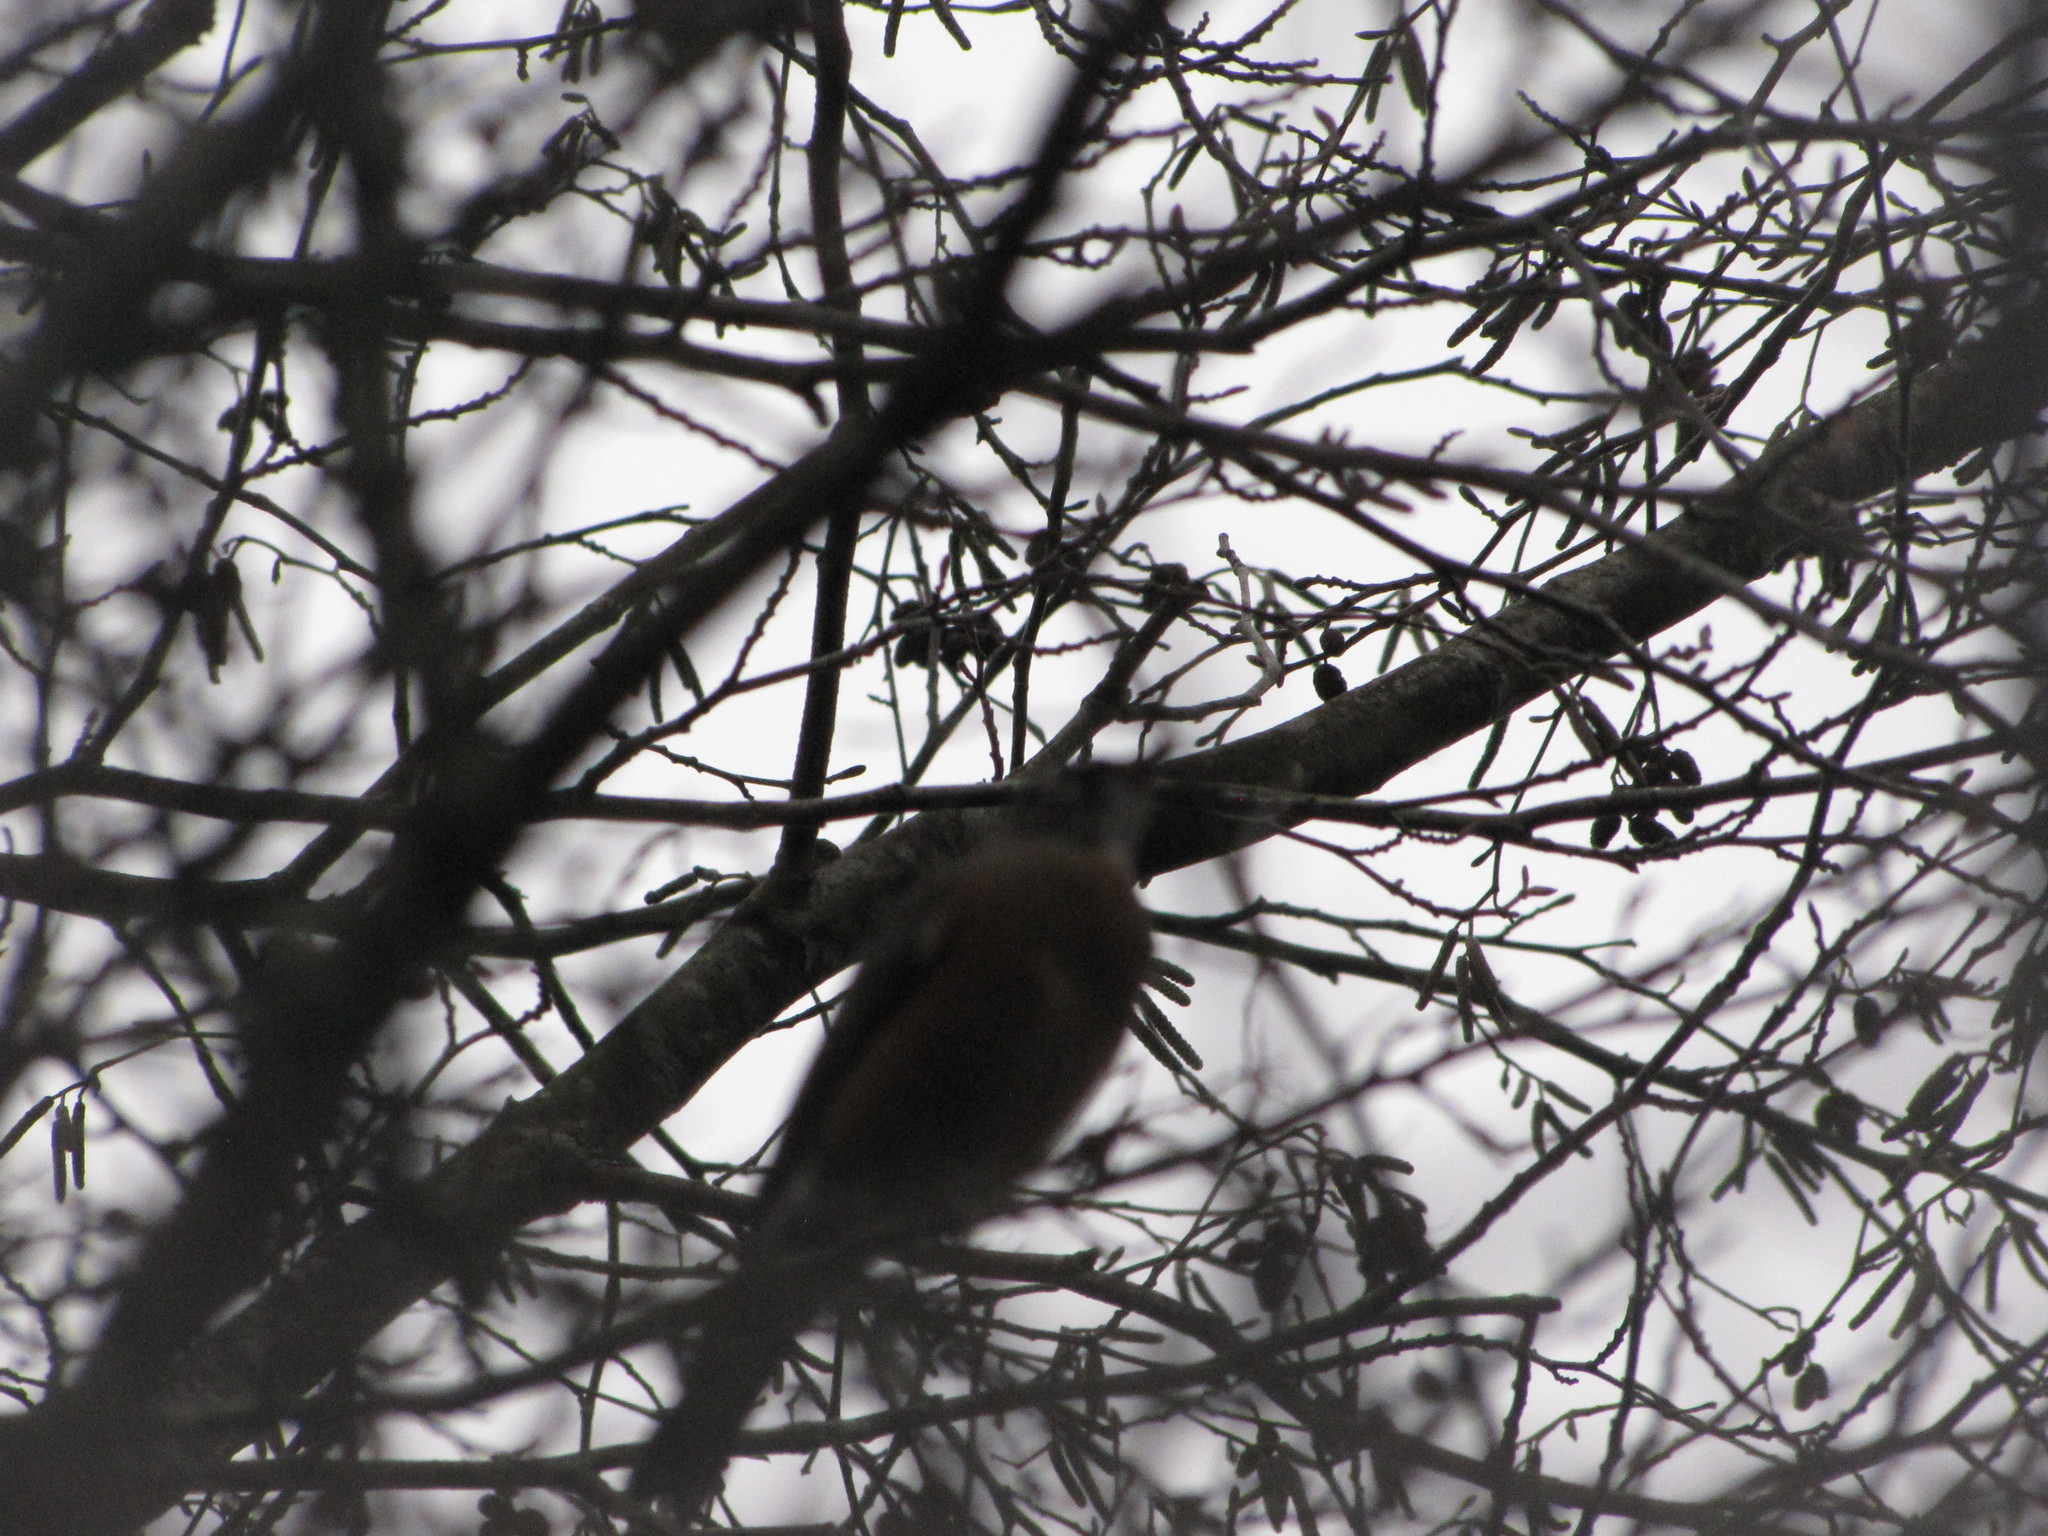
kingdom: Animalia
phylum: Chordata
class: Aves
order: Passeriformes
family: Turdidae
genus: Turdus
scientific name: Turdus migratorius
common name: American robin
